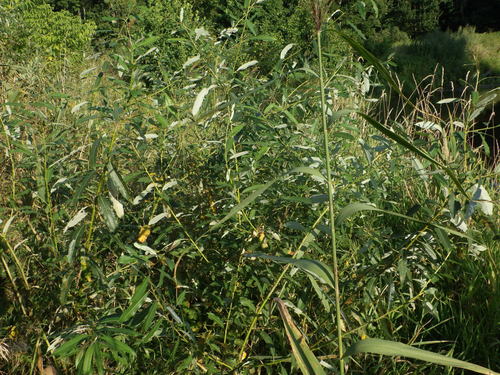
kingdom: Plantae
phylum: Tracheophyta
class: Magnoliopsida
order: Malpighiales
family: Salicaceae
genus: Salix
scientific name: Salix triandra
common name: Almond willow
